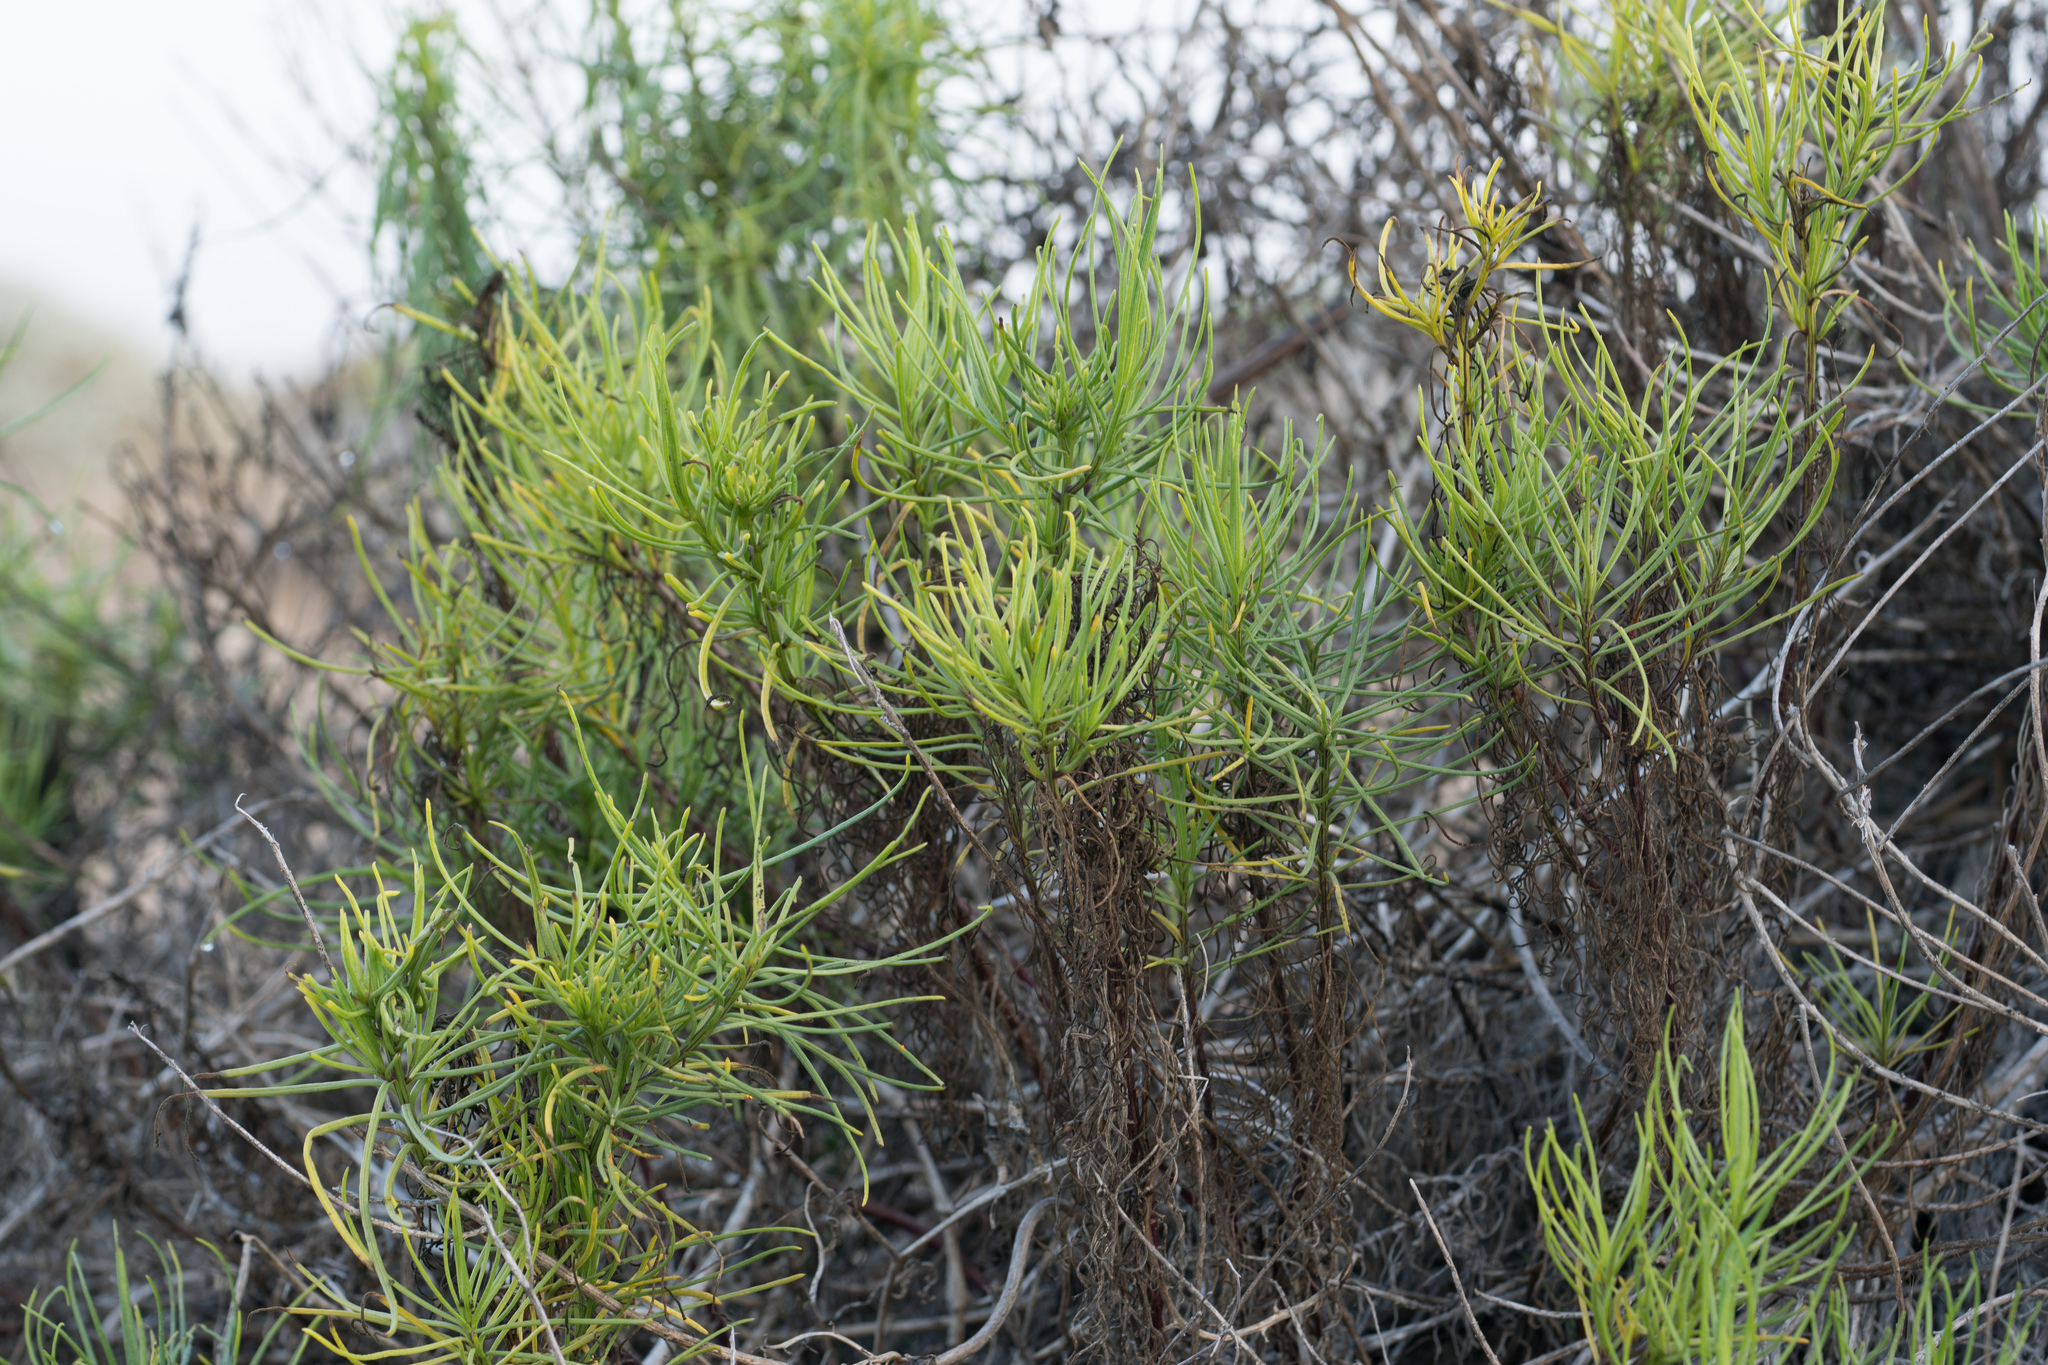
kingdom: Plantae
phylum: Tracheophyta
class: Magnoliopsida
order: Asterales
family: Asteraceae
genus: Senecio
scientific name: Senecio blochmaniae
